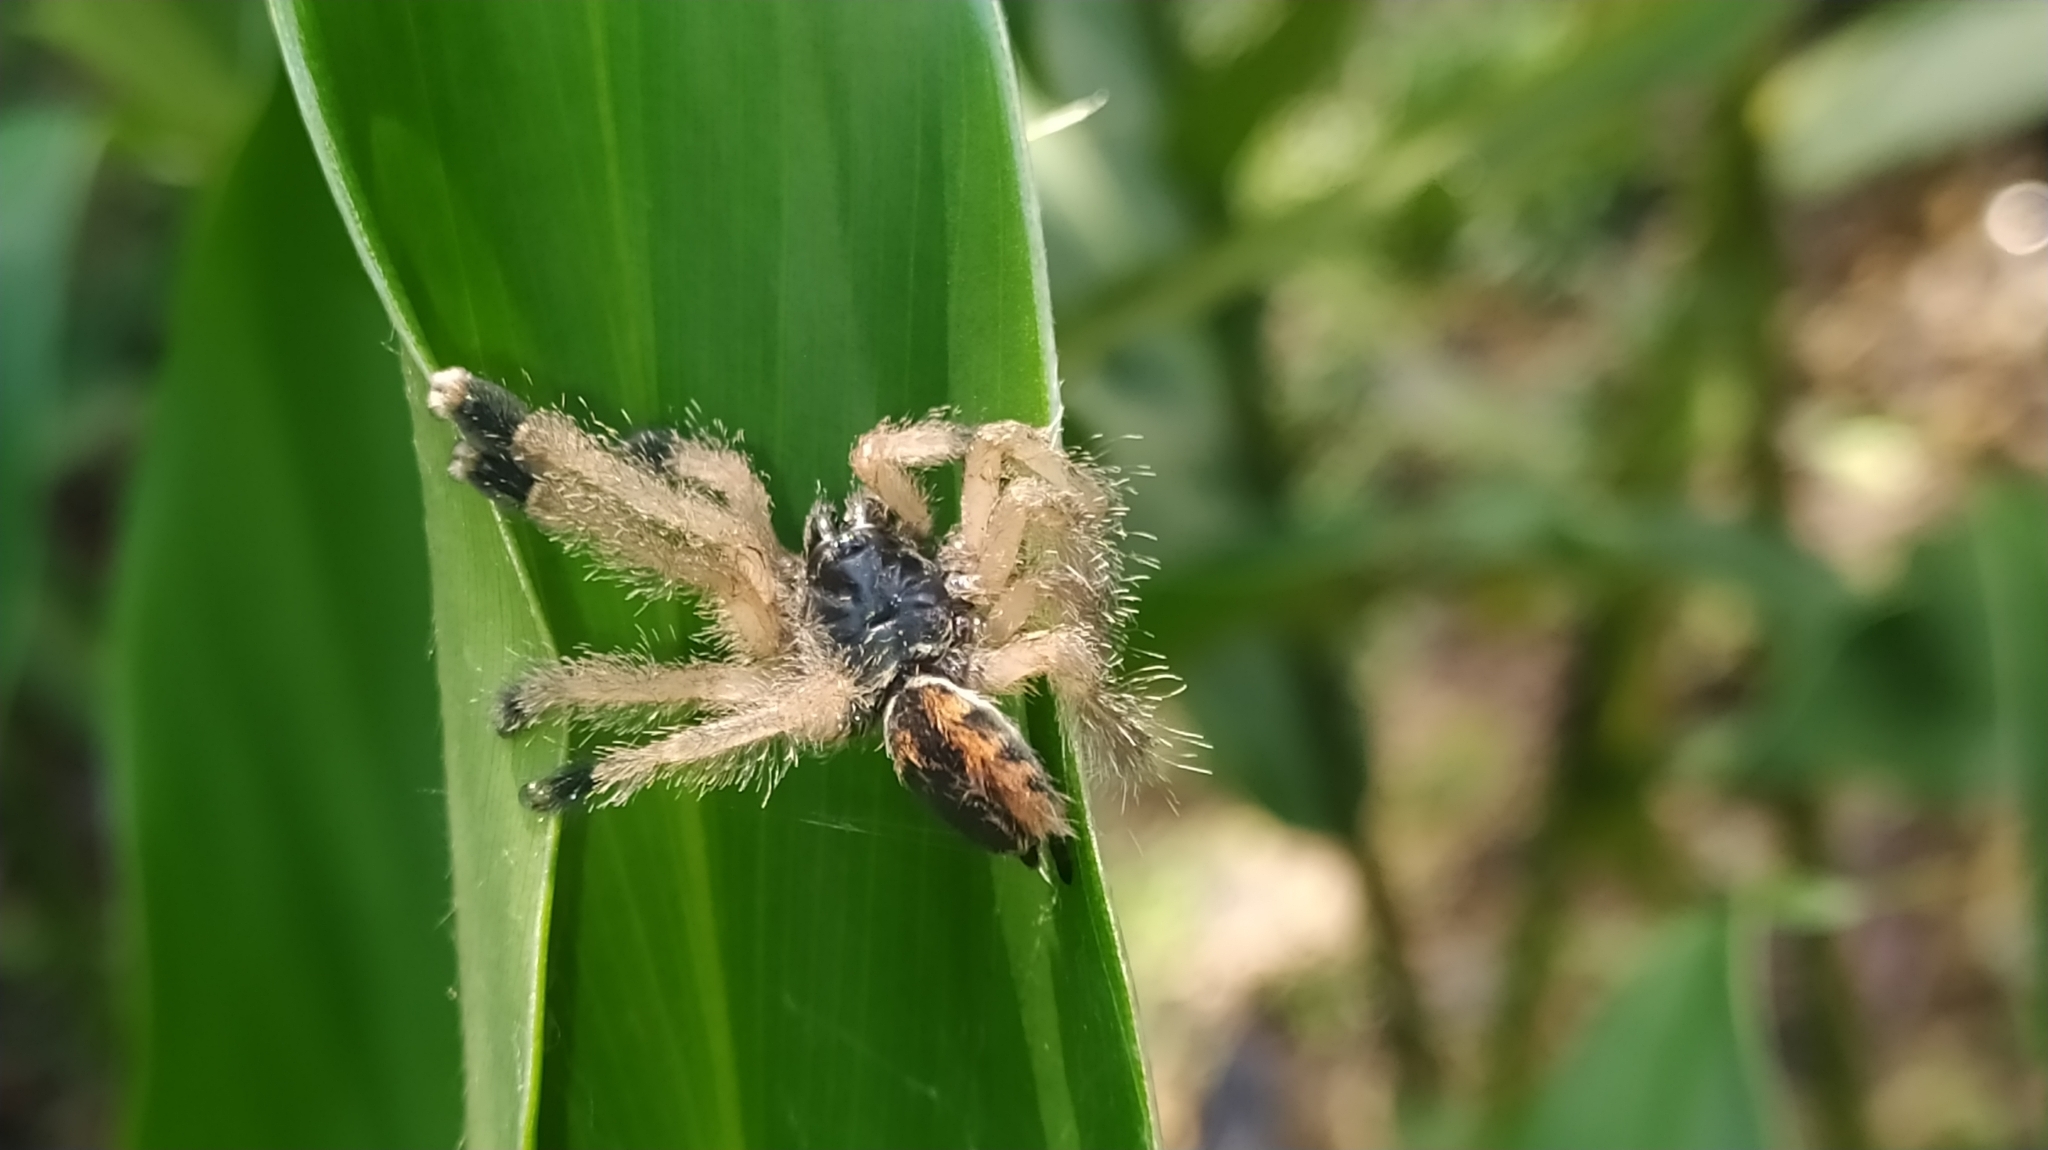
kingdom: Animalia
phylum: Arthropoda
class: Arachnida
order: Araneae
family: Theraphosidae
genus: Avicularia
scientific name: Avicularia avicularia
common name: Tarantula spiders
